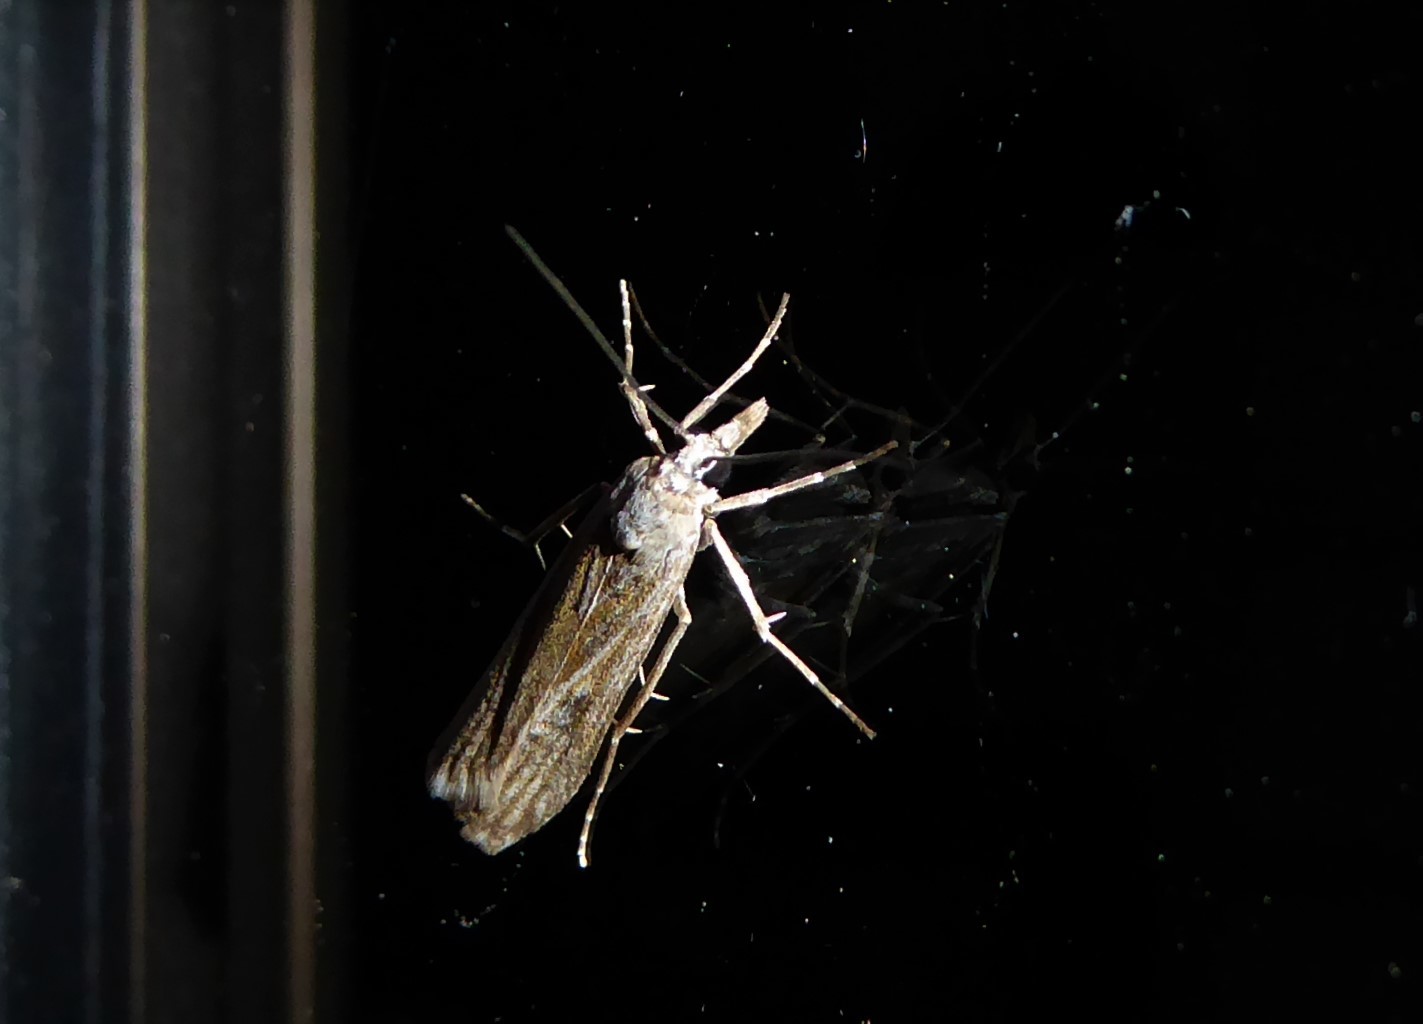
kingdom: Animalia
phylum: Arthropoda
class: Insecta
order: Lepidoptera
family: Crambidae
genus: Eudonia
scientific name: Eudonia atmogramma
